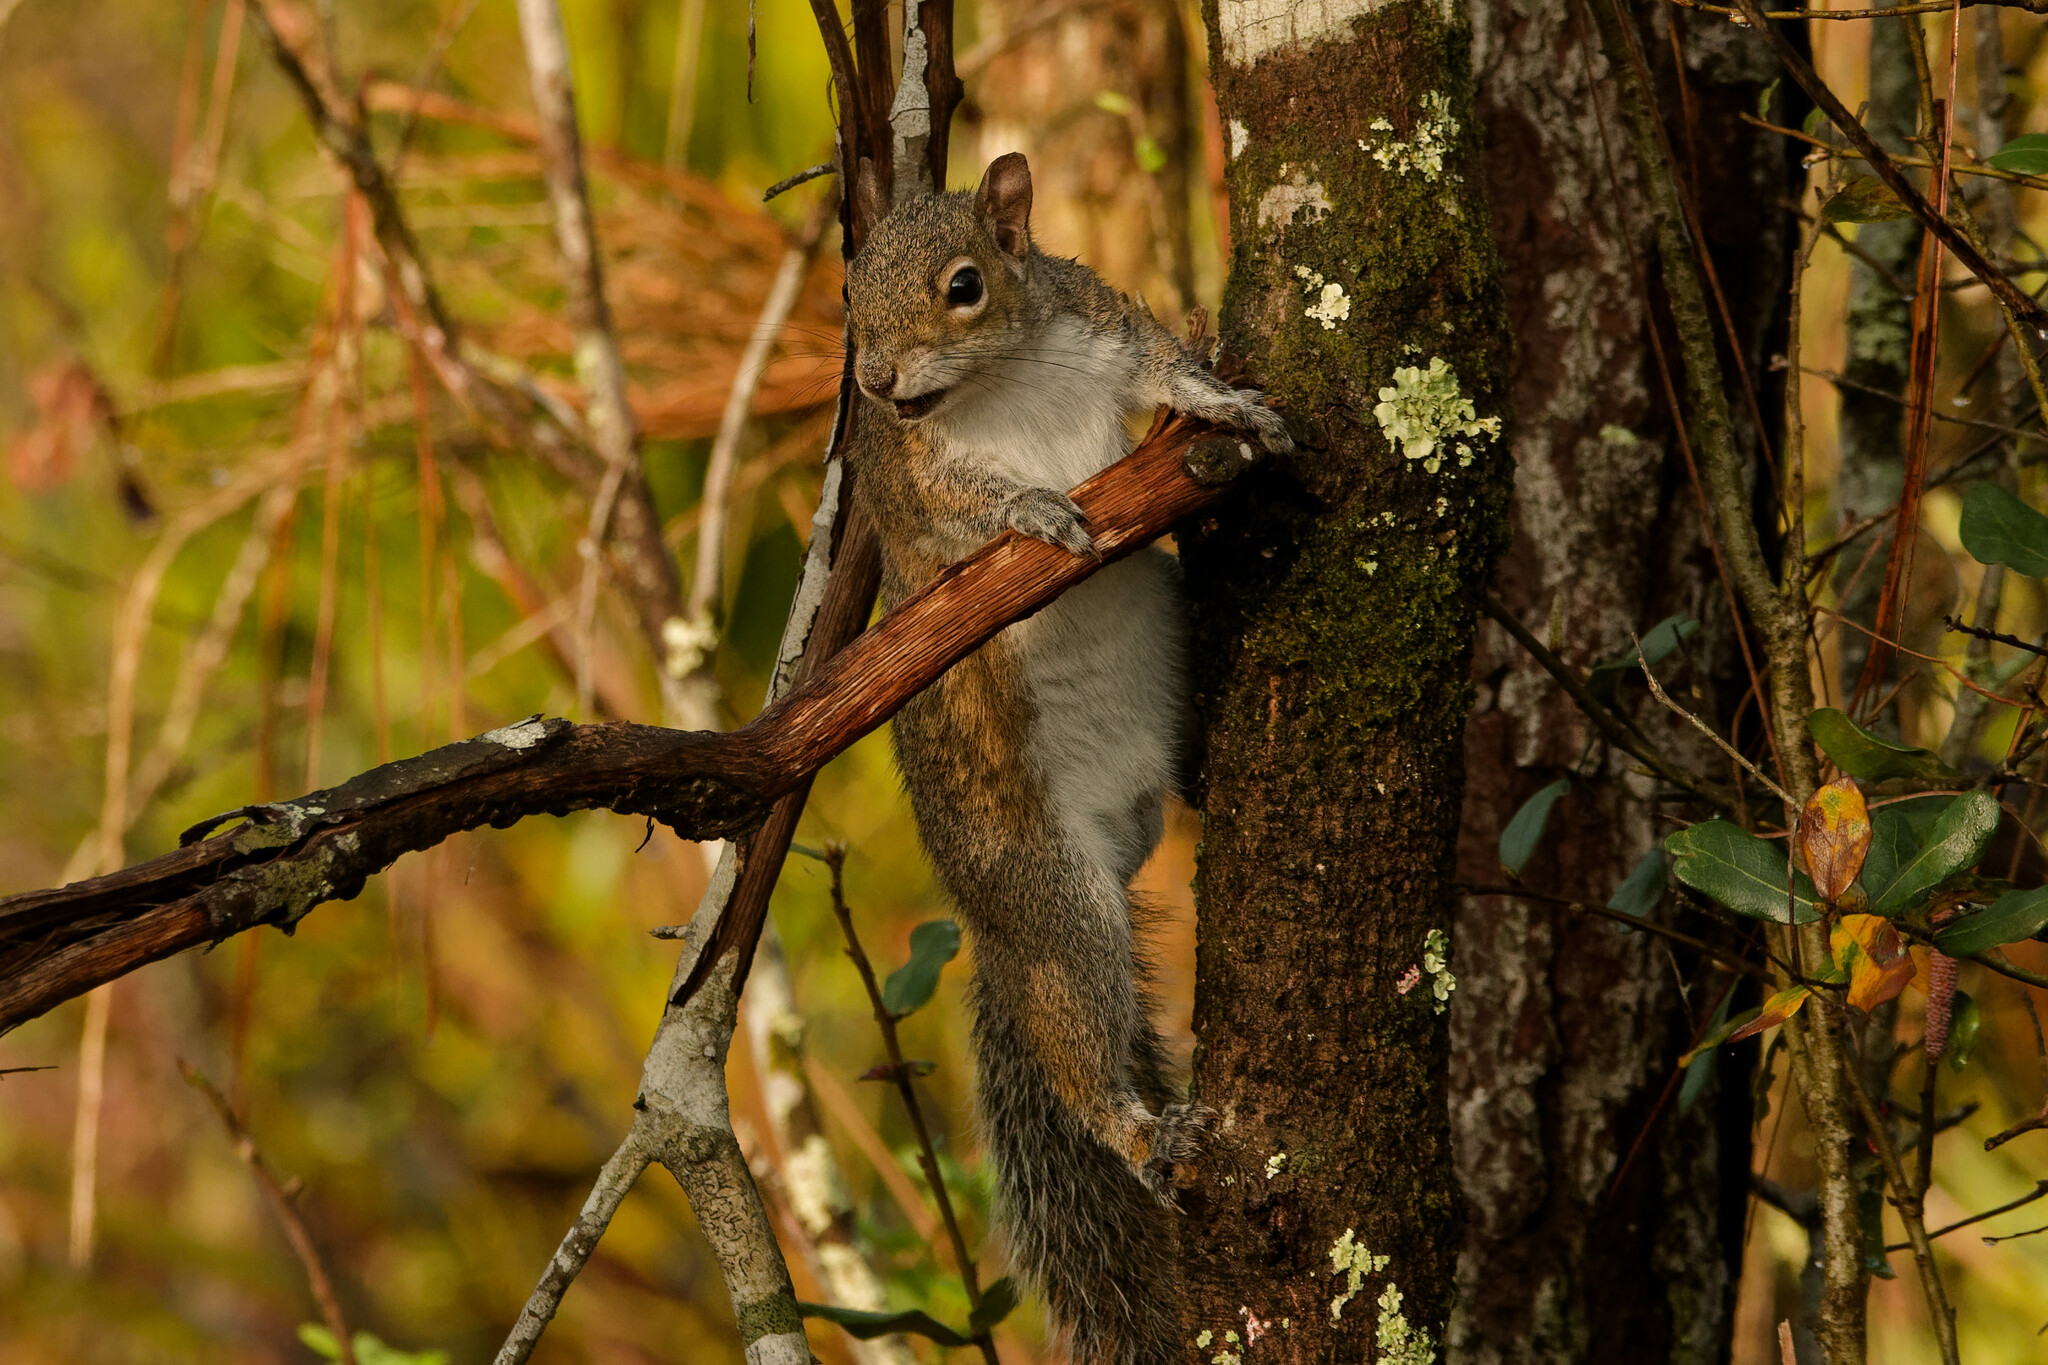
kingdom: Animalia
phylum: Chordata
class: Mammalia
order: Rodentia
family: Sciuridae
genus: Sciurus
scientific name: Sciurus carolinensis
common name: Eastern gray squirrel
